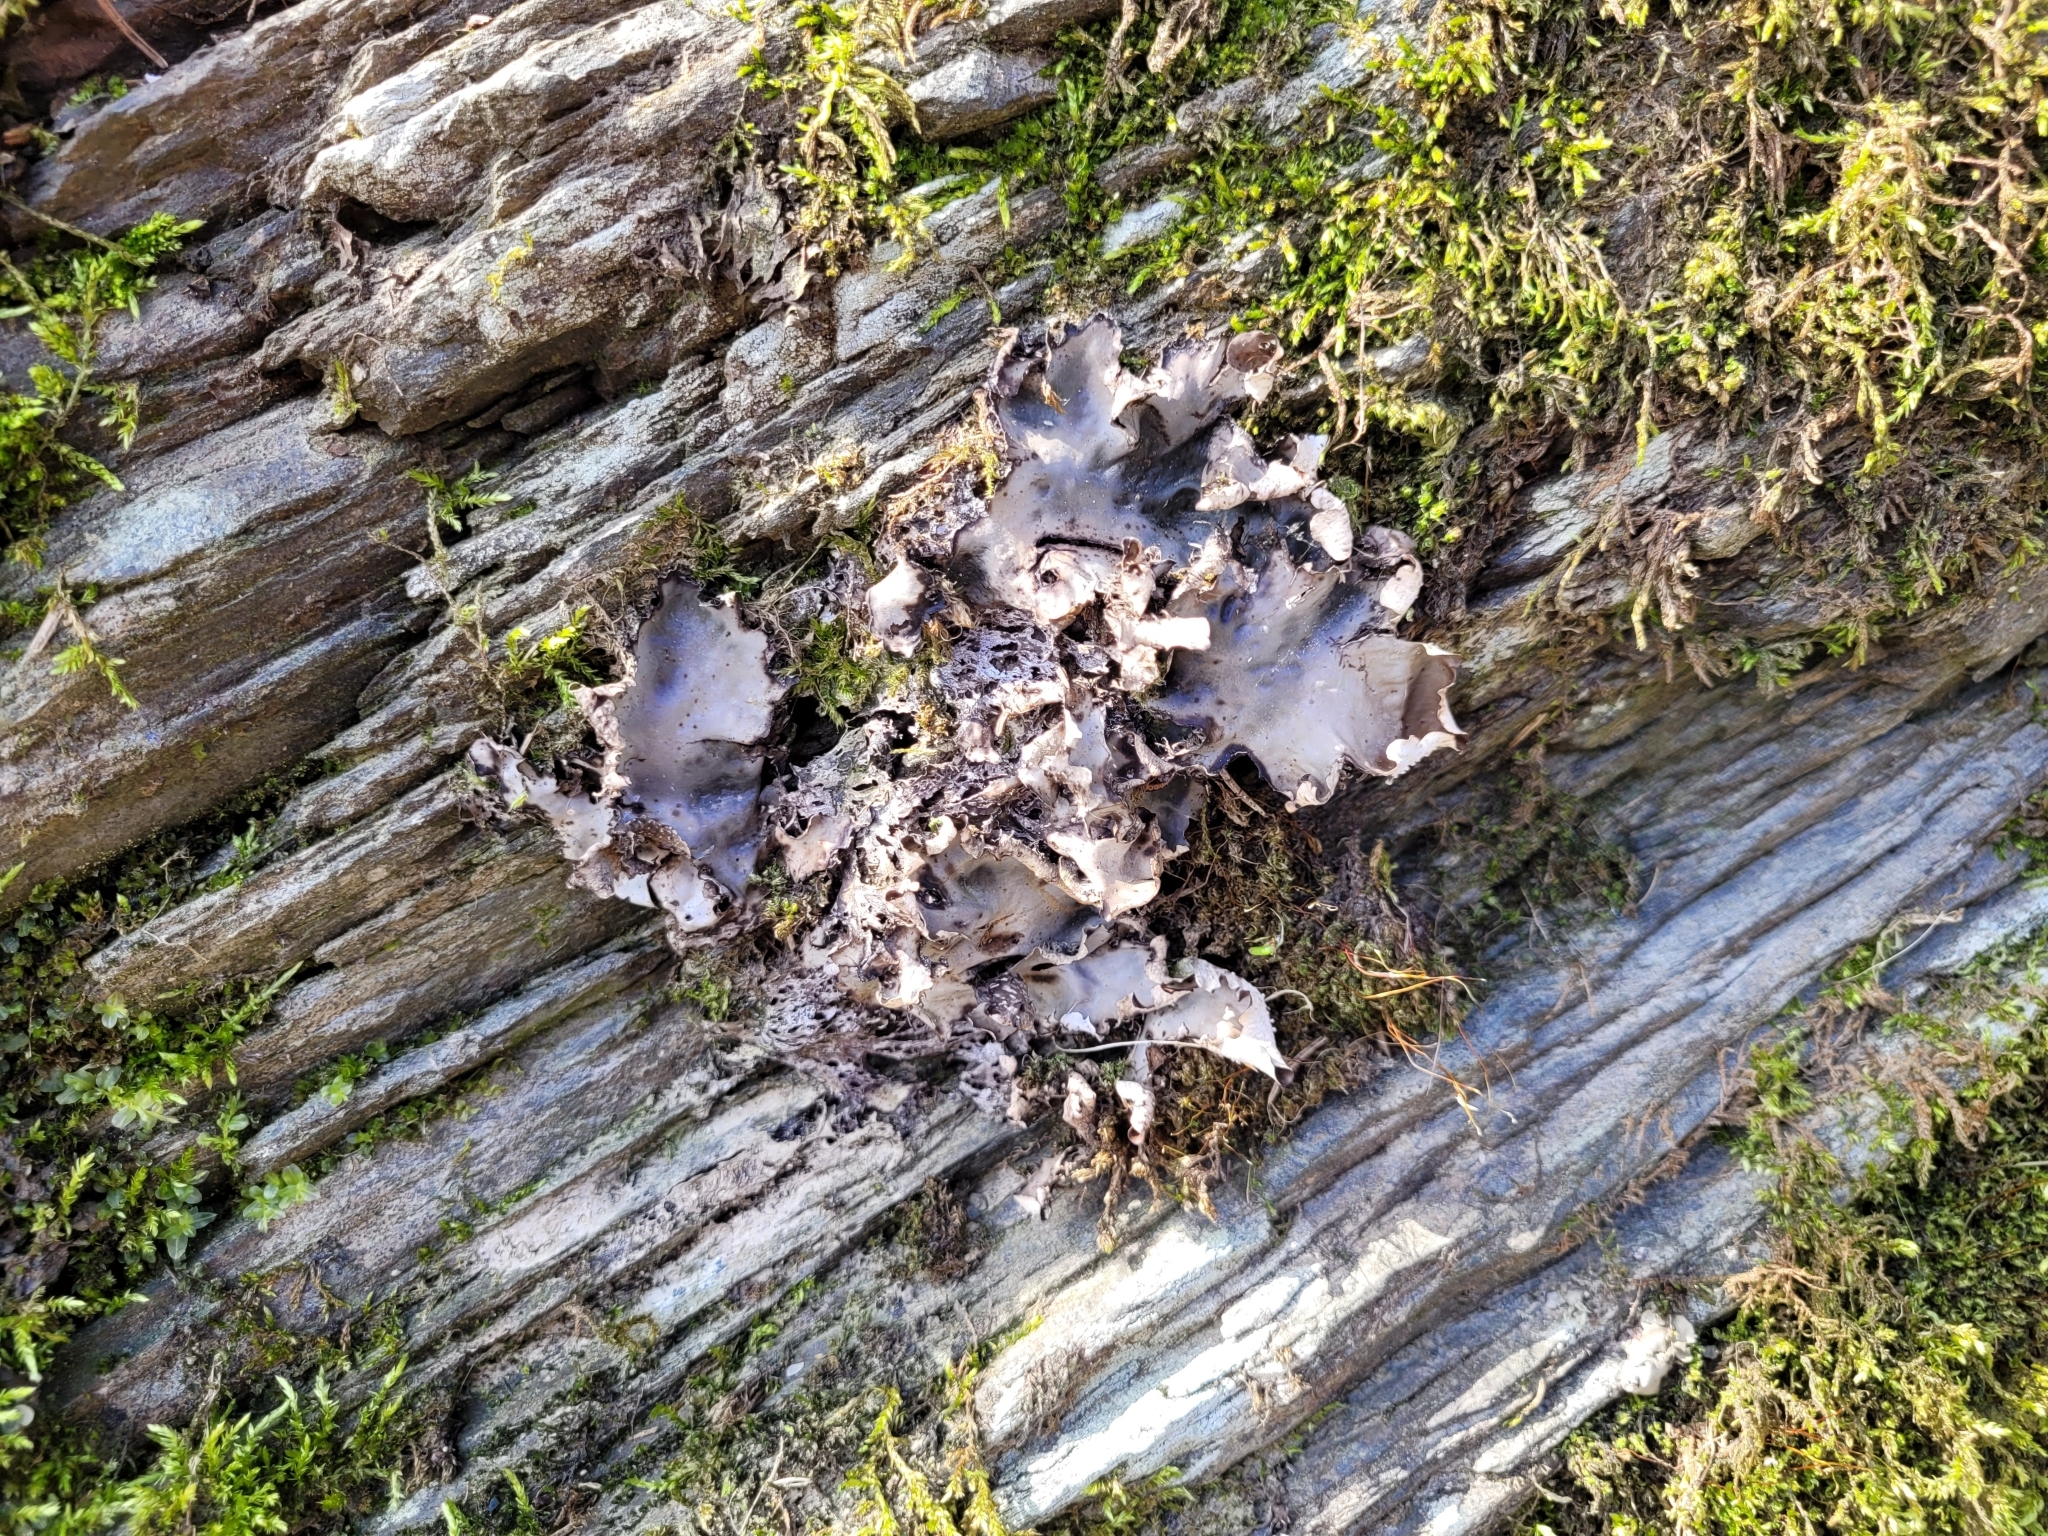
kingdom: Fungi
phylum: Ascomycota
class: Lecanoromycetes
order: Peltigerales
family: Peltigeraceae
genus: Peltigera
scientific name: Peltigera horizontalis
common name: Flat fruited pelt
